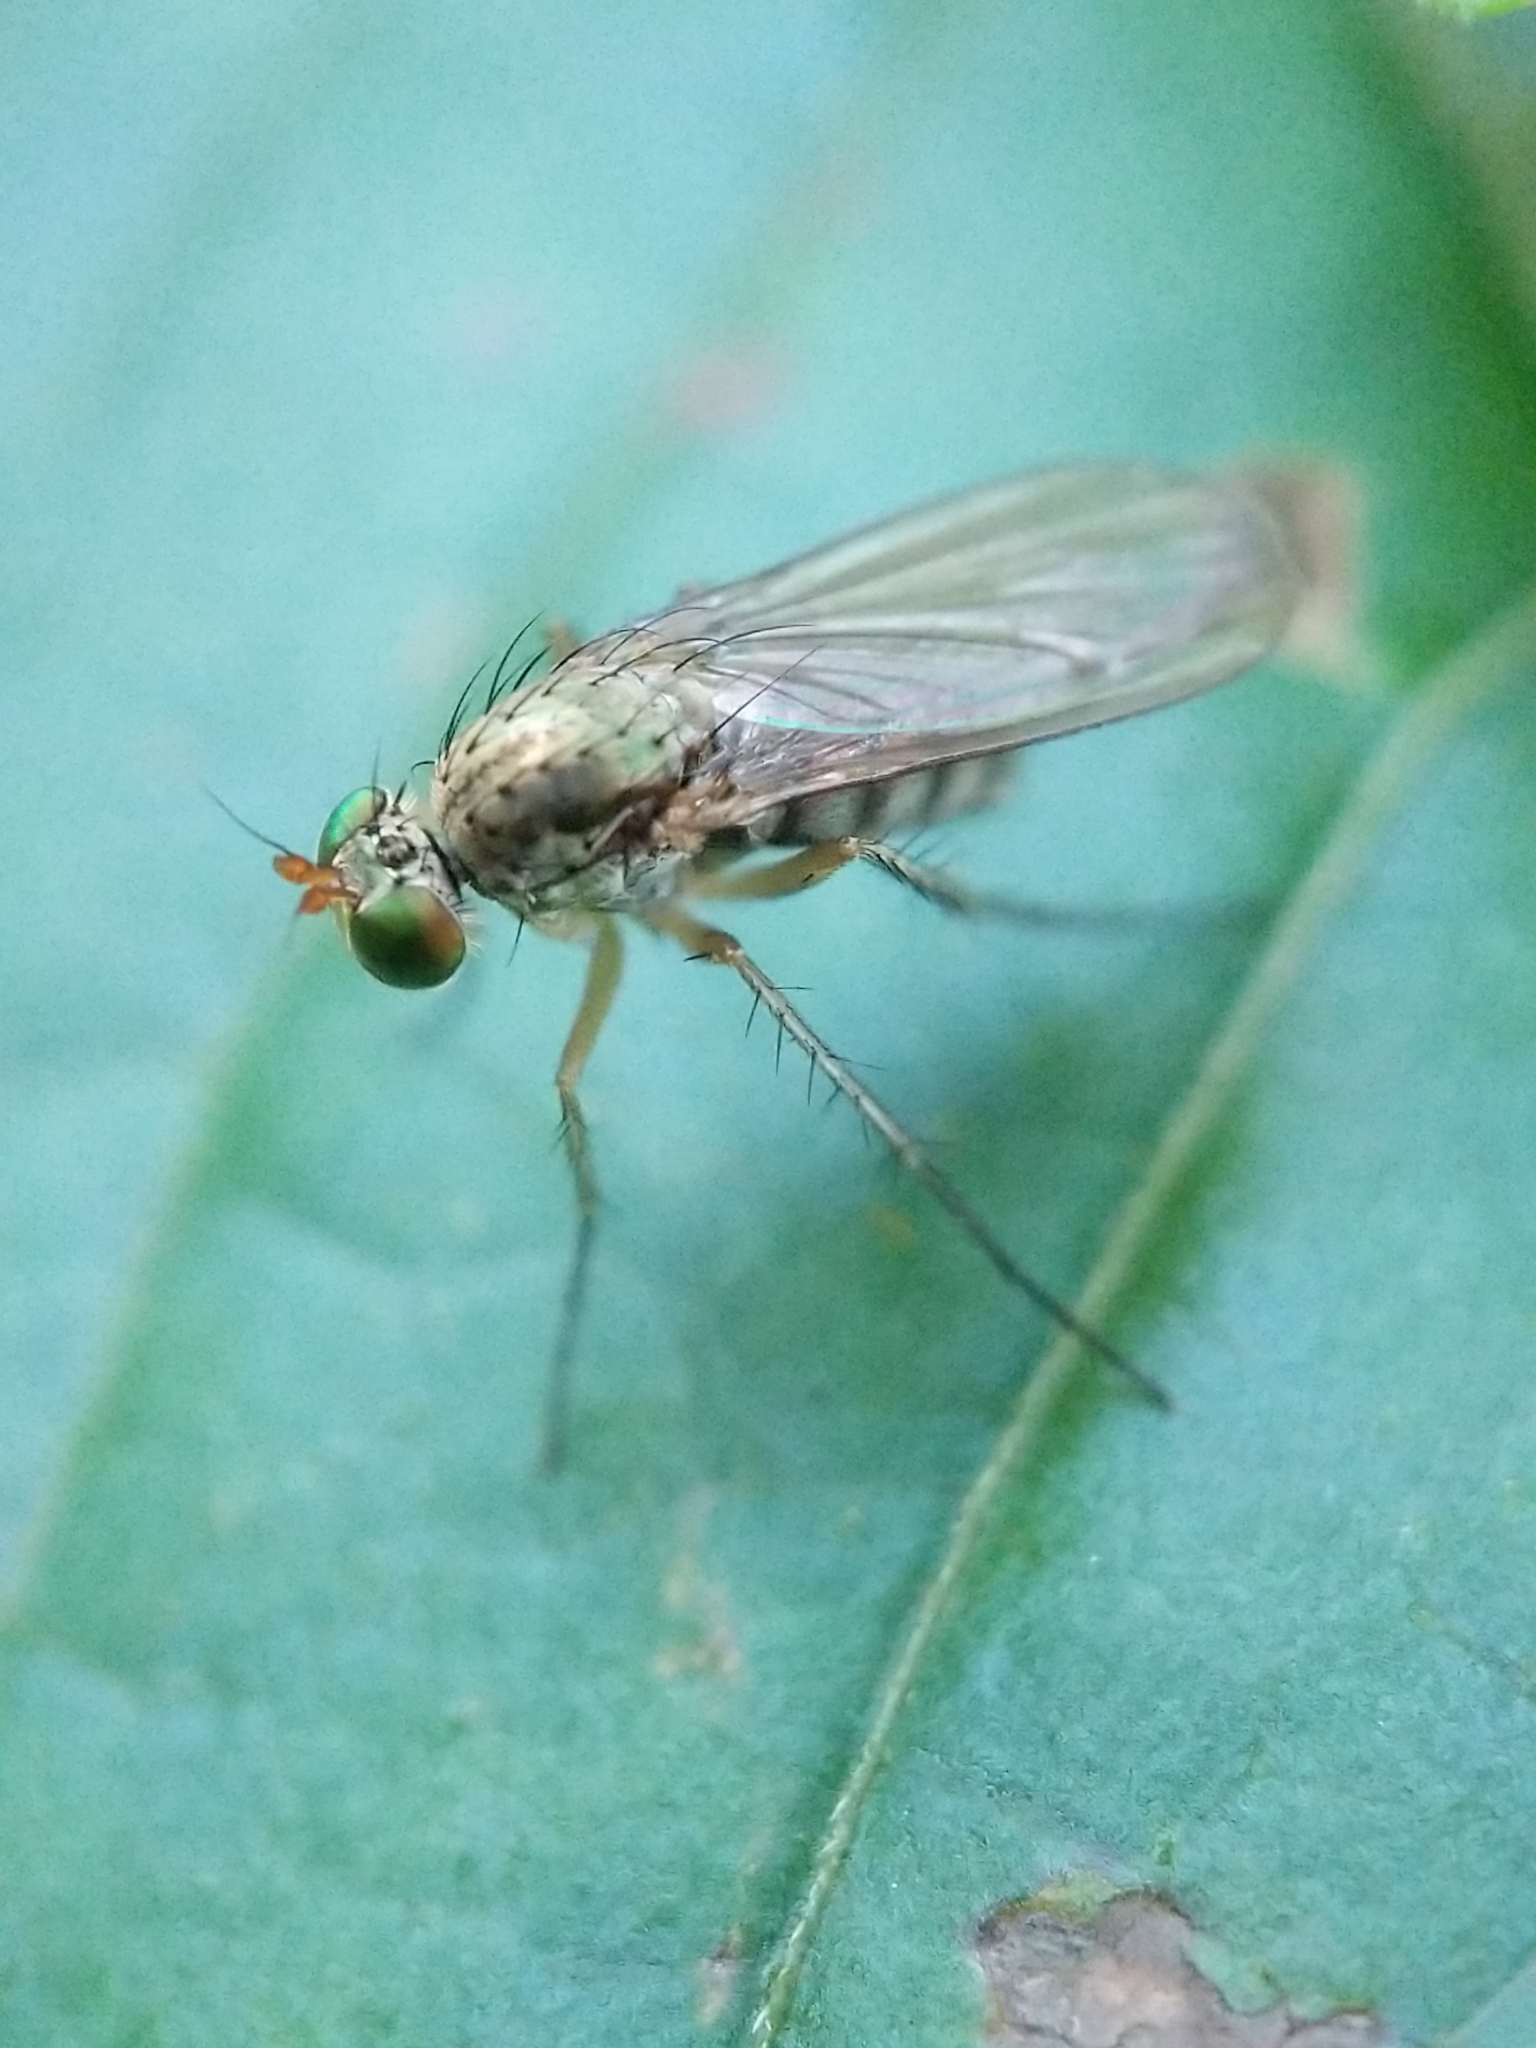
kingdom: Animalia
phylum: Arthropoda
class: Insecta
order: Diptera
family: Dolichopodidae
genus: Dolichopus
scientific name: Dolichopus
